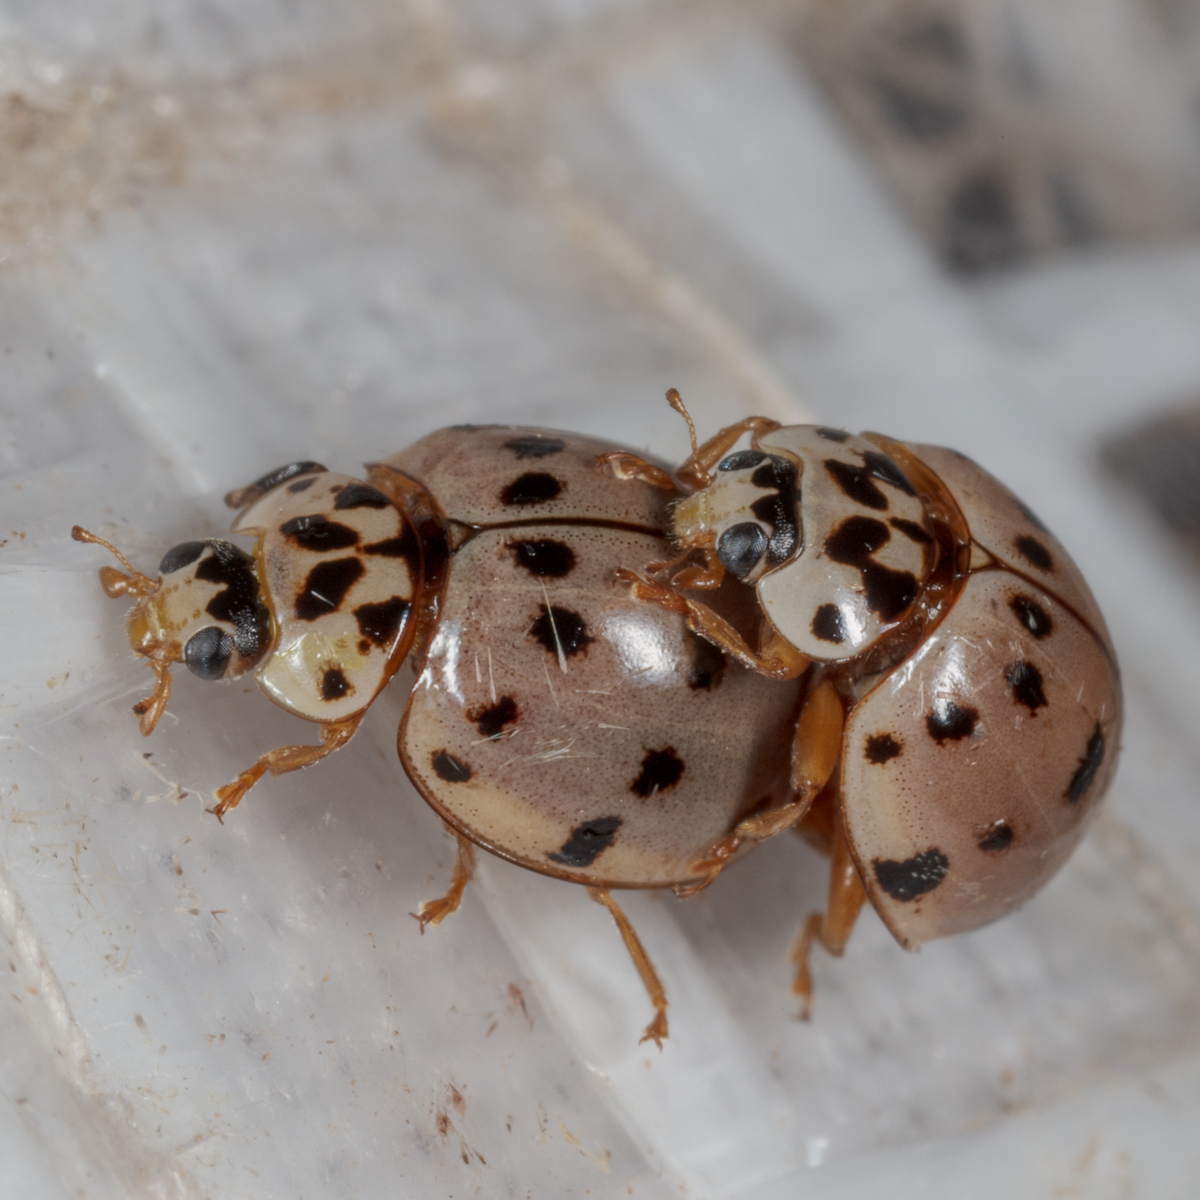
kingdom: Animalia
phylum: Arthropoda
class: Insecta
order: Coleoptera
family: Coccinellidae
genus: Olla
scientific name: Olla v-nigrum
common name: Ashy gray lady beetle
